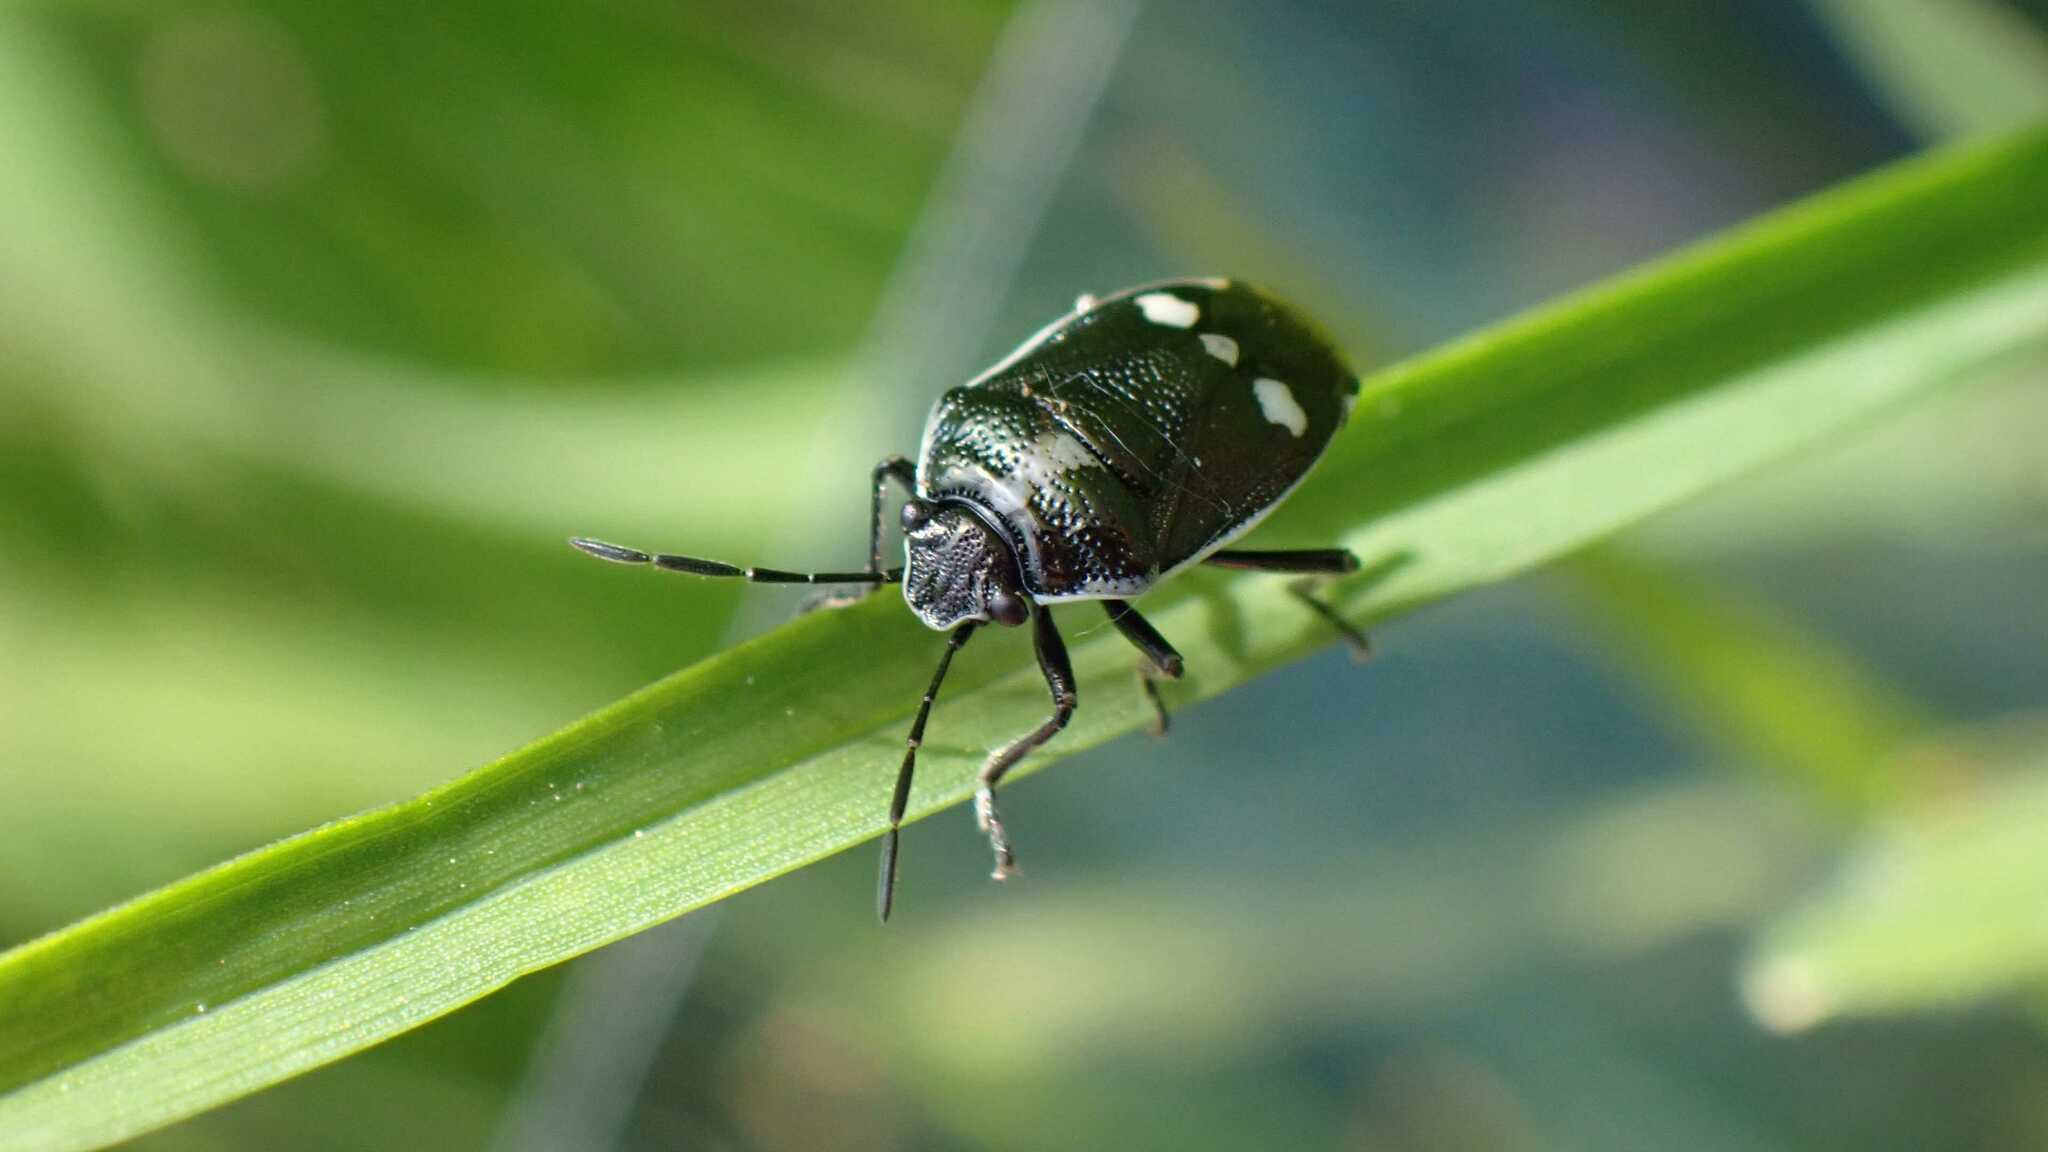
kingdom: Animalia
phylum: Arthropoda
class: Insecta
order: Hemiptera
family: Pentatomidae
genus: Eurydema
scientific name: Eurydema oleracea
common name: Cabbage bug
